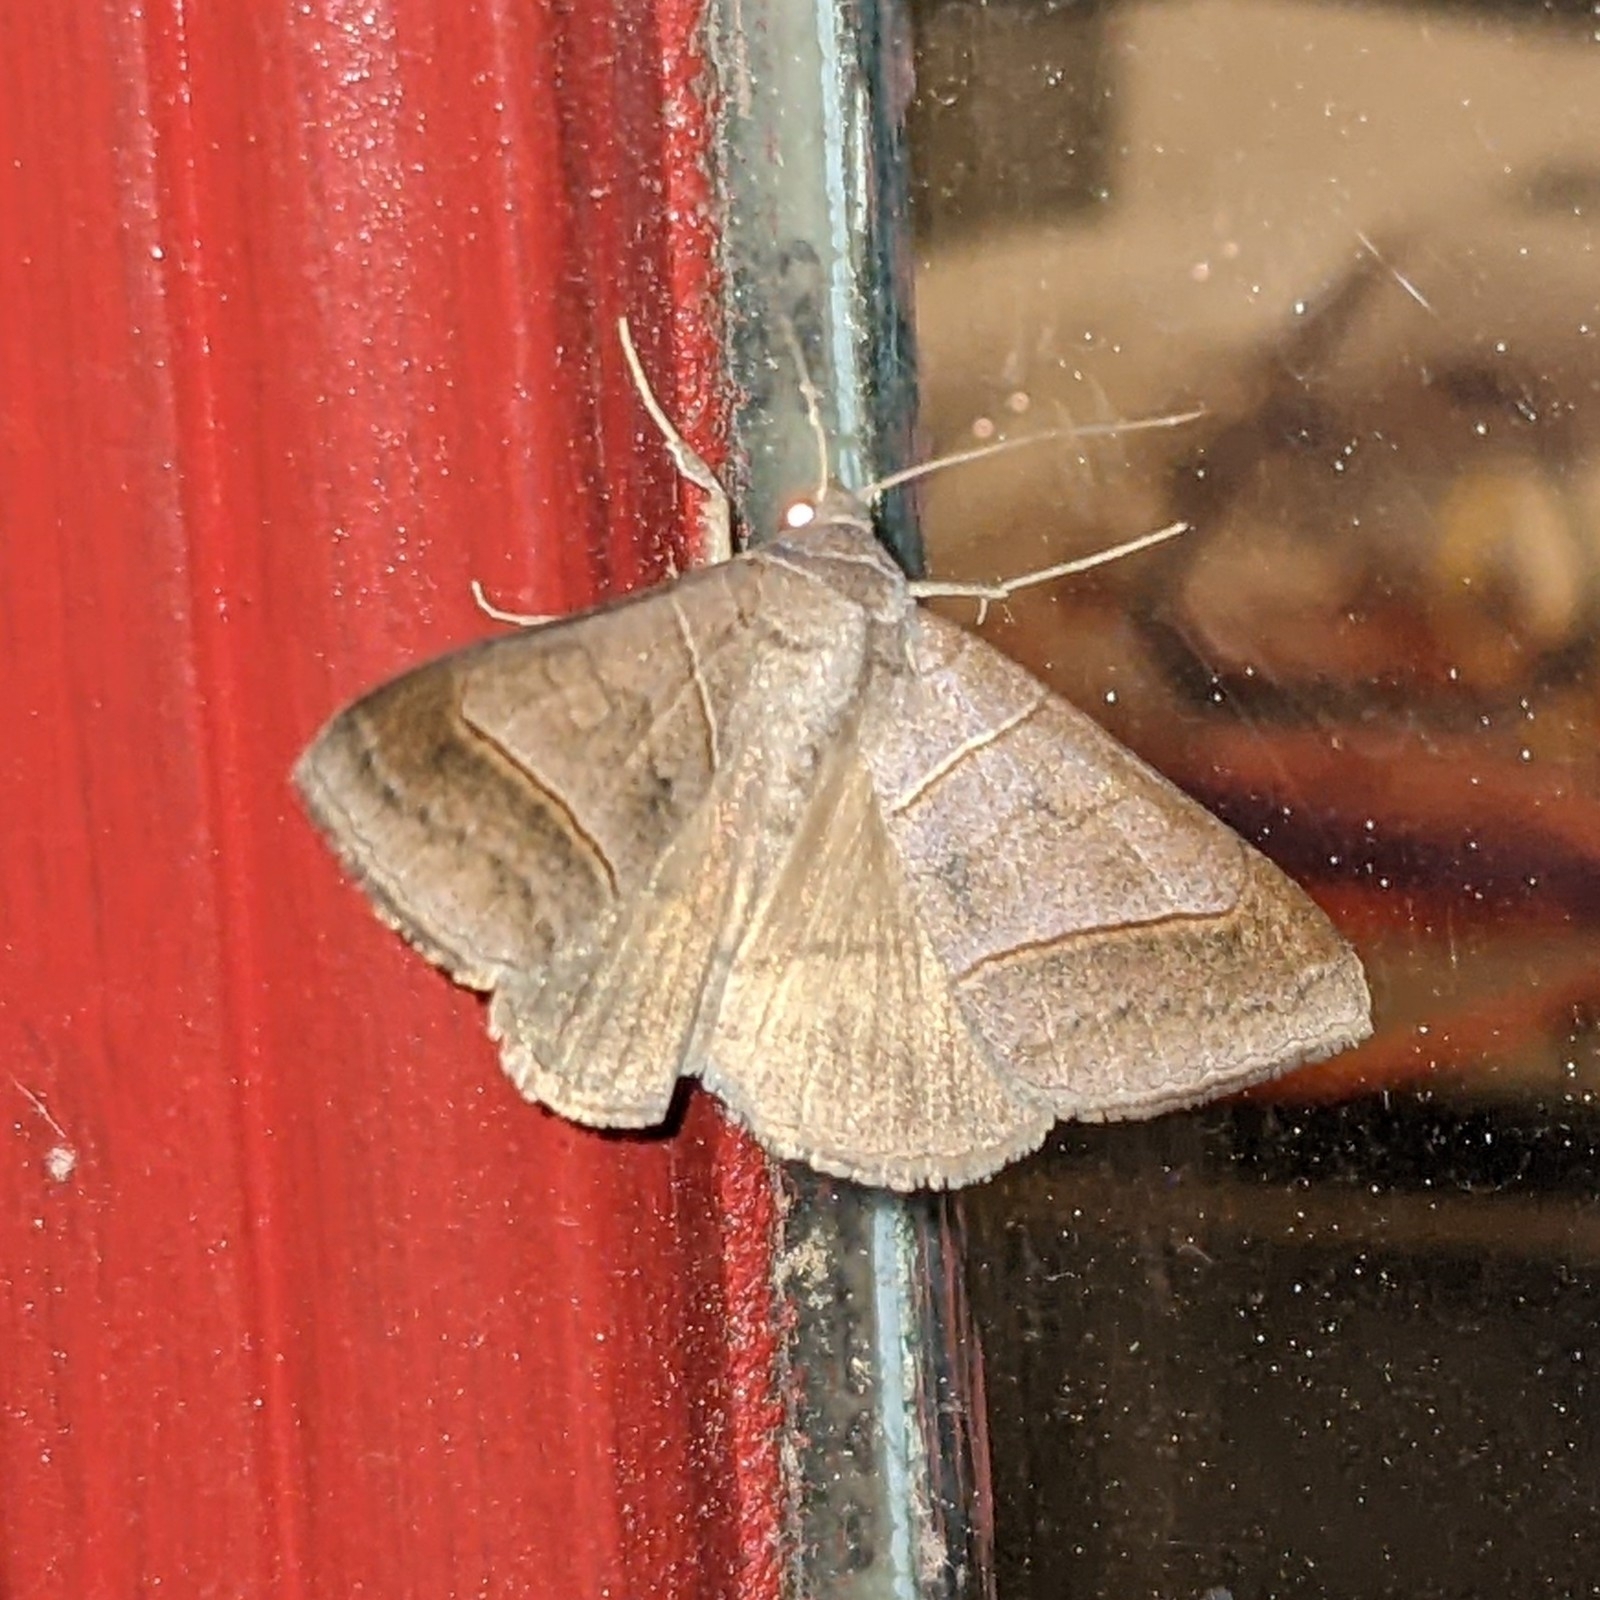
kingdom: Animalia
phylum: Arthropoda
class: Insecta
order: Lepidoptera
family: Erebidae
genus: Mocis
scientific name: Mocis texana
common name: Texas mocis moth
